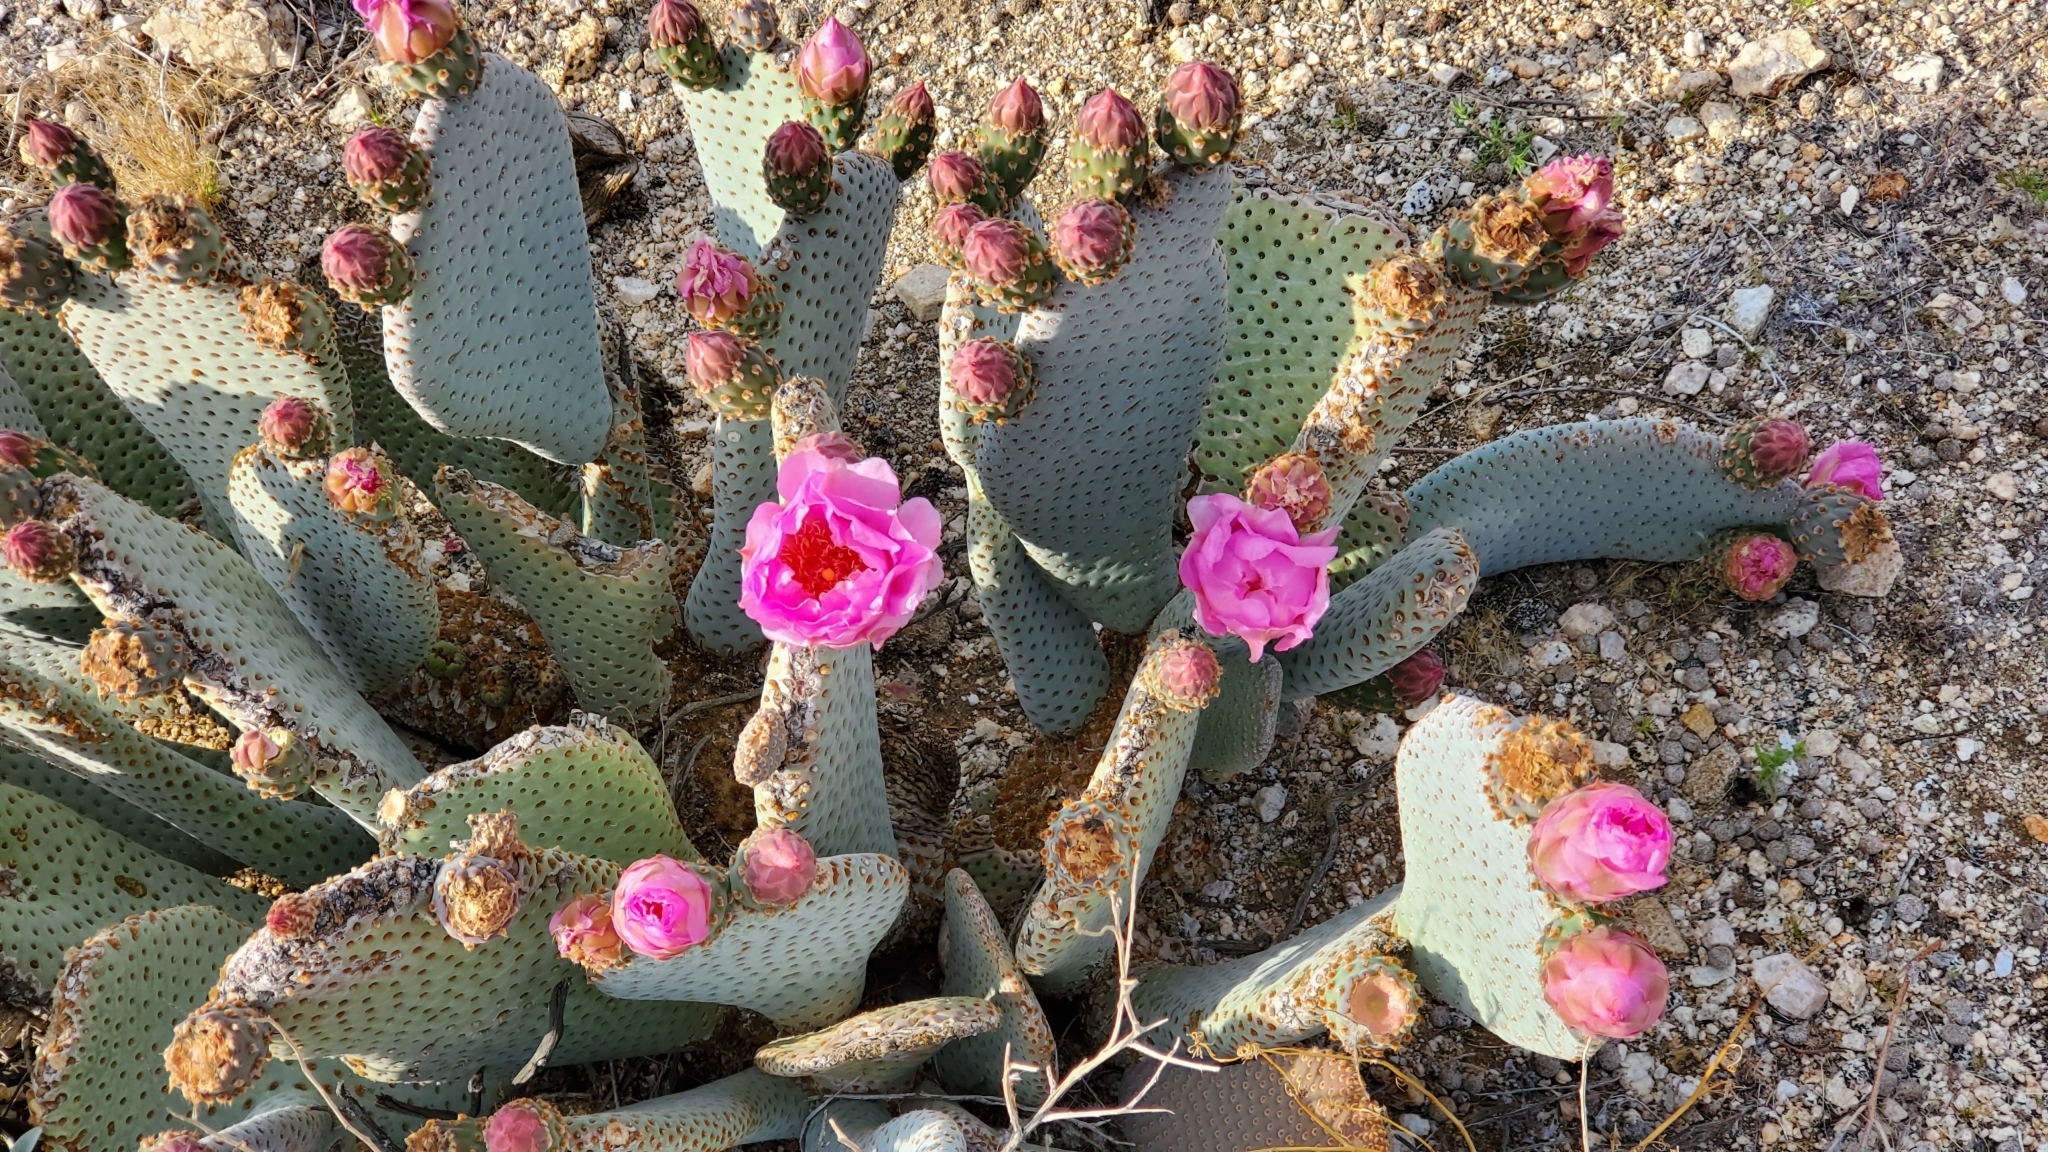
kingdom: Plantae
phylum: Tracheophyta
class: Magnoliopsida
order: Caryophyllales
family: Cactaceae
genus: Opuntia
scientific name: Opuntia basilaris
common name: Beavertail prickly-pear
